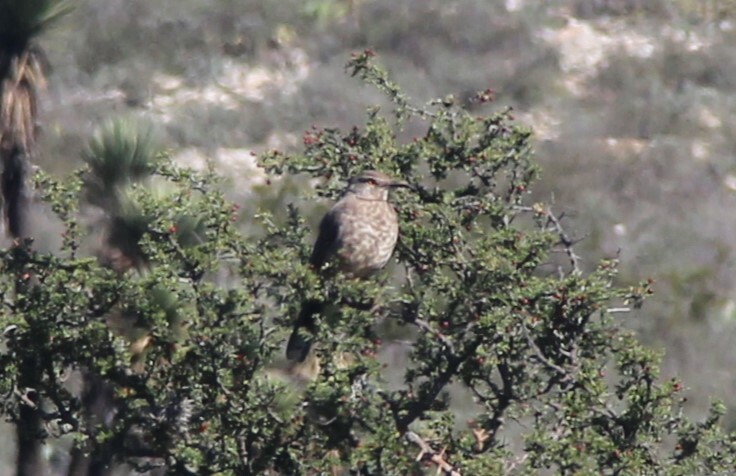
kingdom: Animalia
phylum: Chordata
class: Aves
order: Passeriformes
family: Mimidae
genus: Toxostoma
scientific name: Toxostoma curvirostre
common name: Curve-billed thrasher
